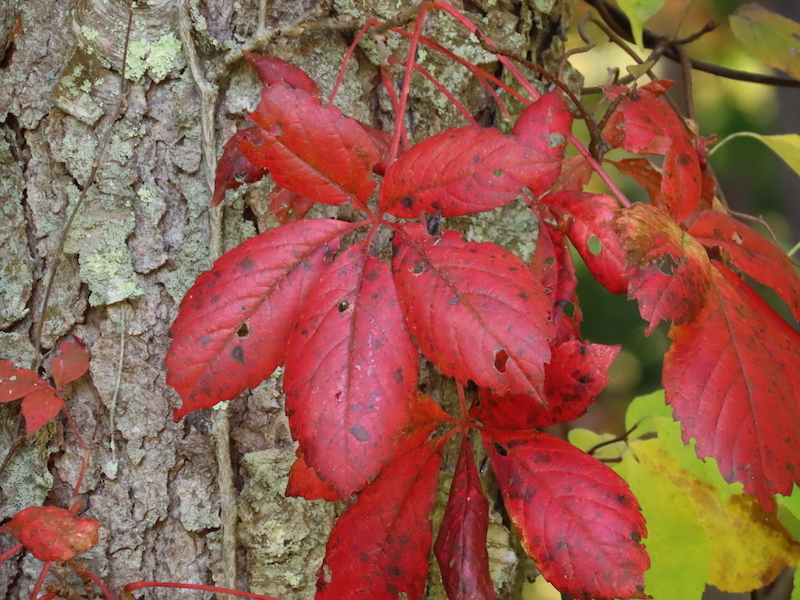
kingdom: Plantae
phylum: Tracheophyta
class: Magnoliopsida
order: Vitales
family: Vitaceae
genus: Parthenocissus
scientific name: Parthenocissus quinquefolia
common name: Virginia-creeper
